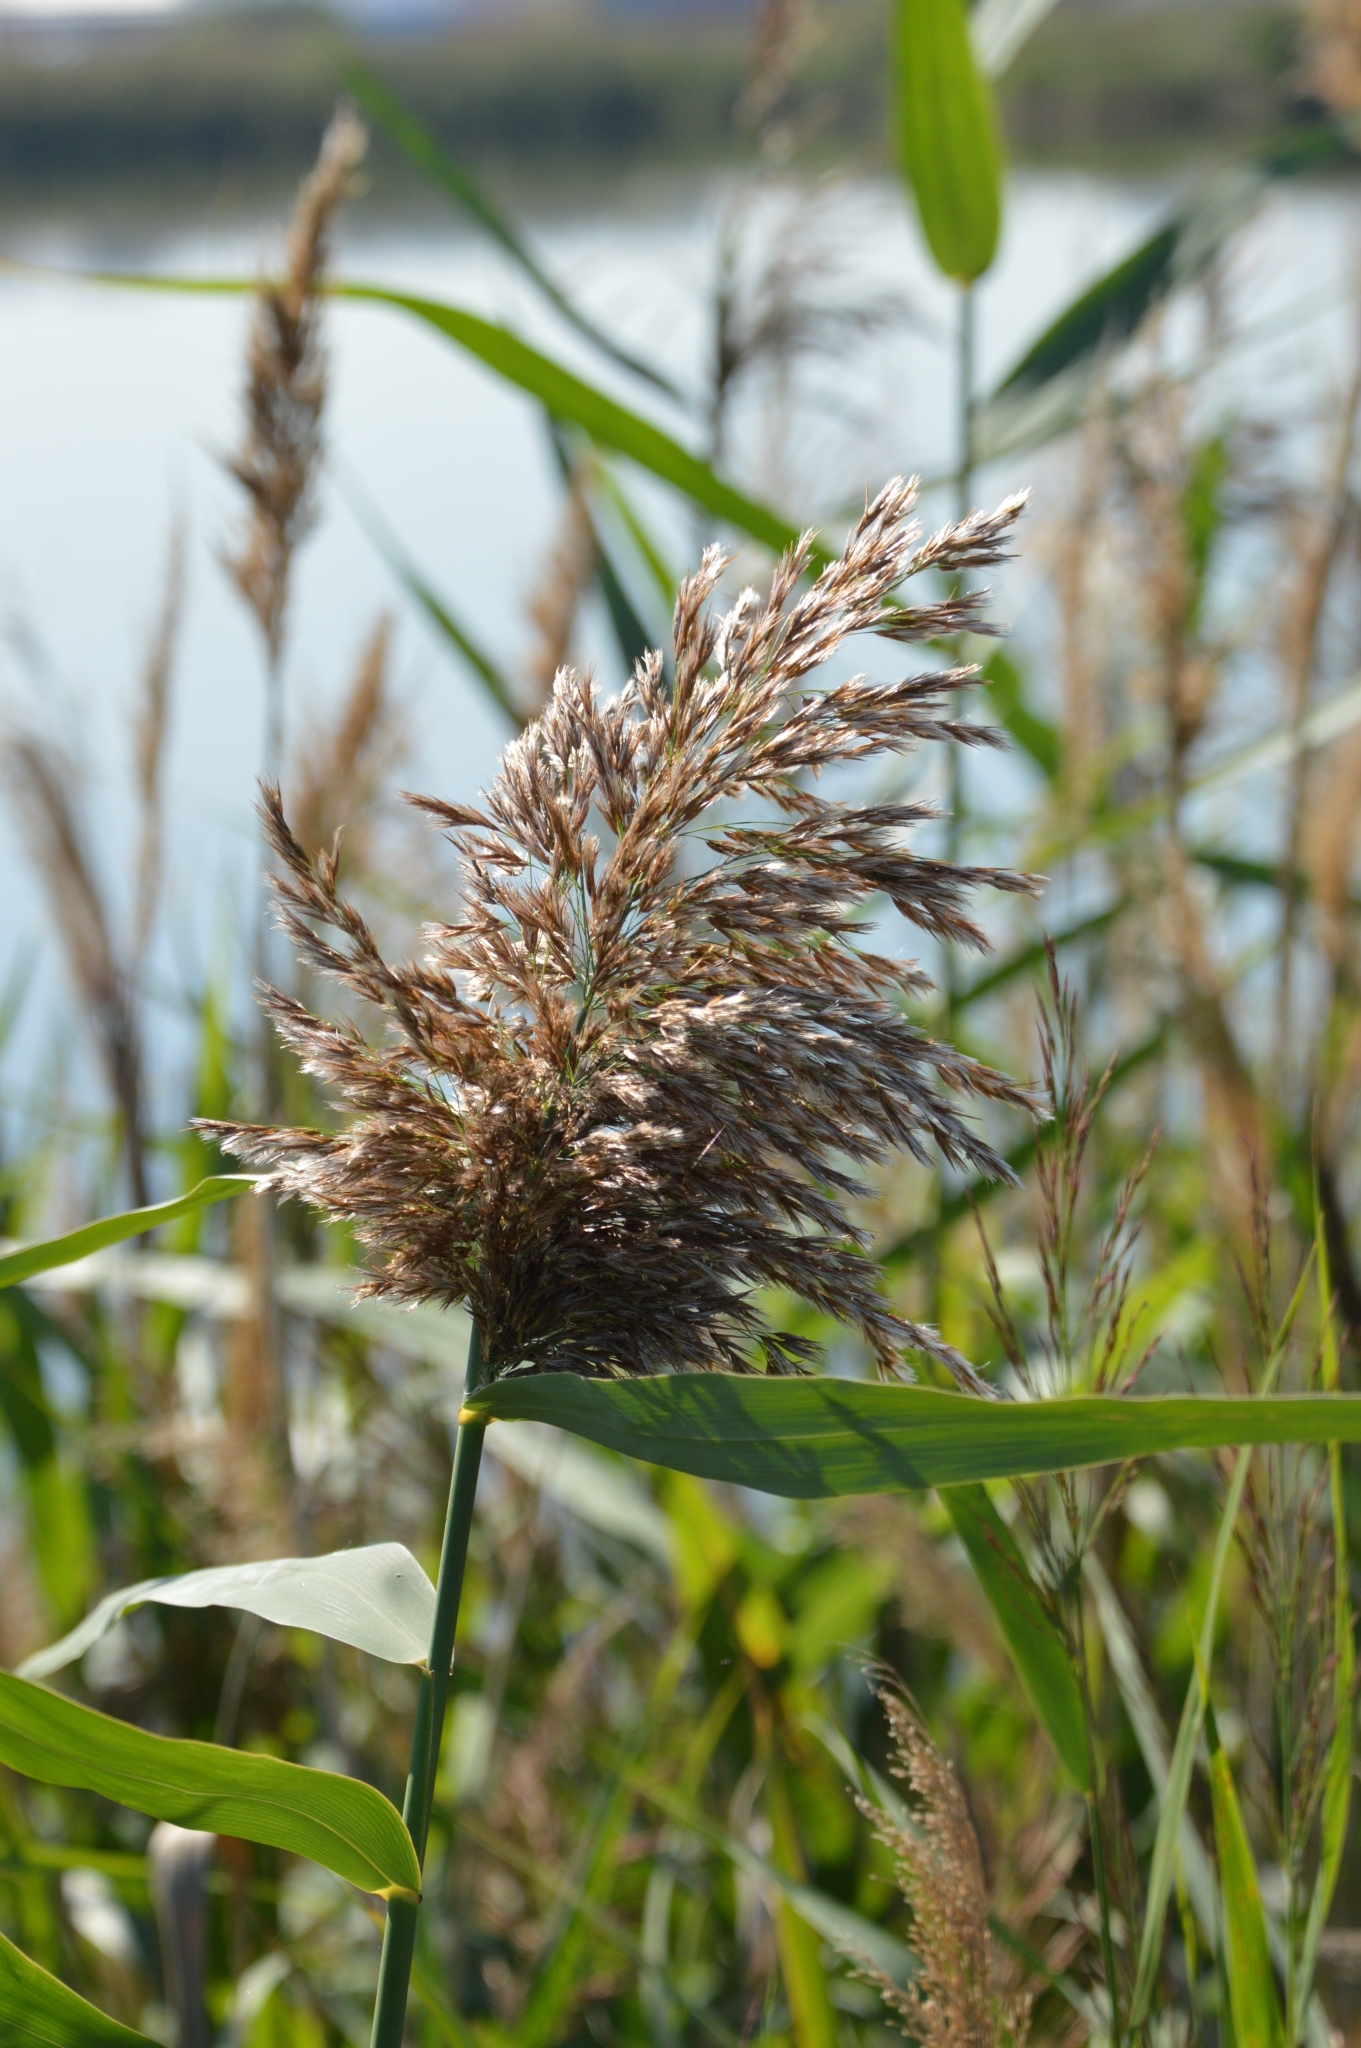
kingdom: Plantae
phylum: Tracheophyta
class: Liliopsida
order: Poales
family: Poaceae
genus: Phragmites
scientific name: Phragmites australis
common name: Common reed
